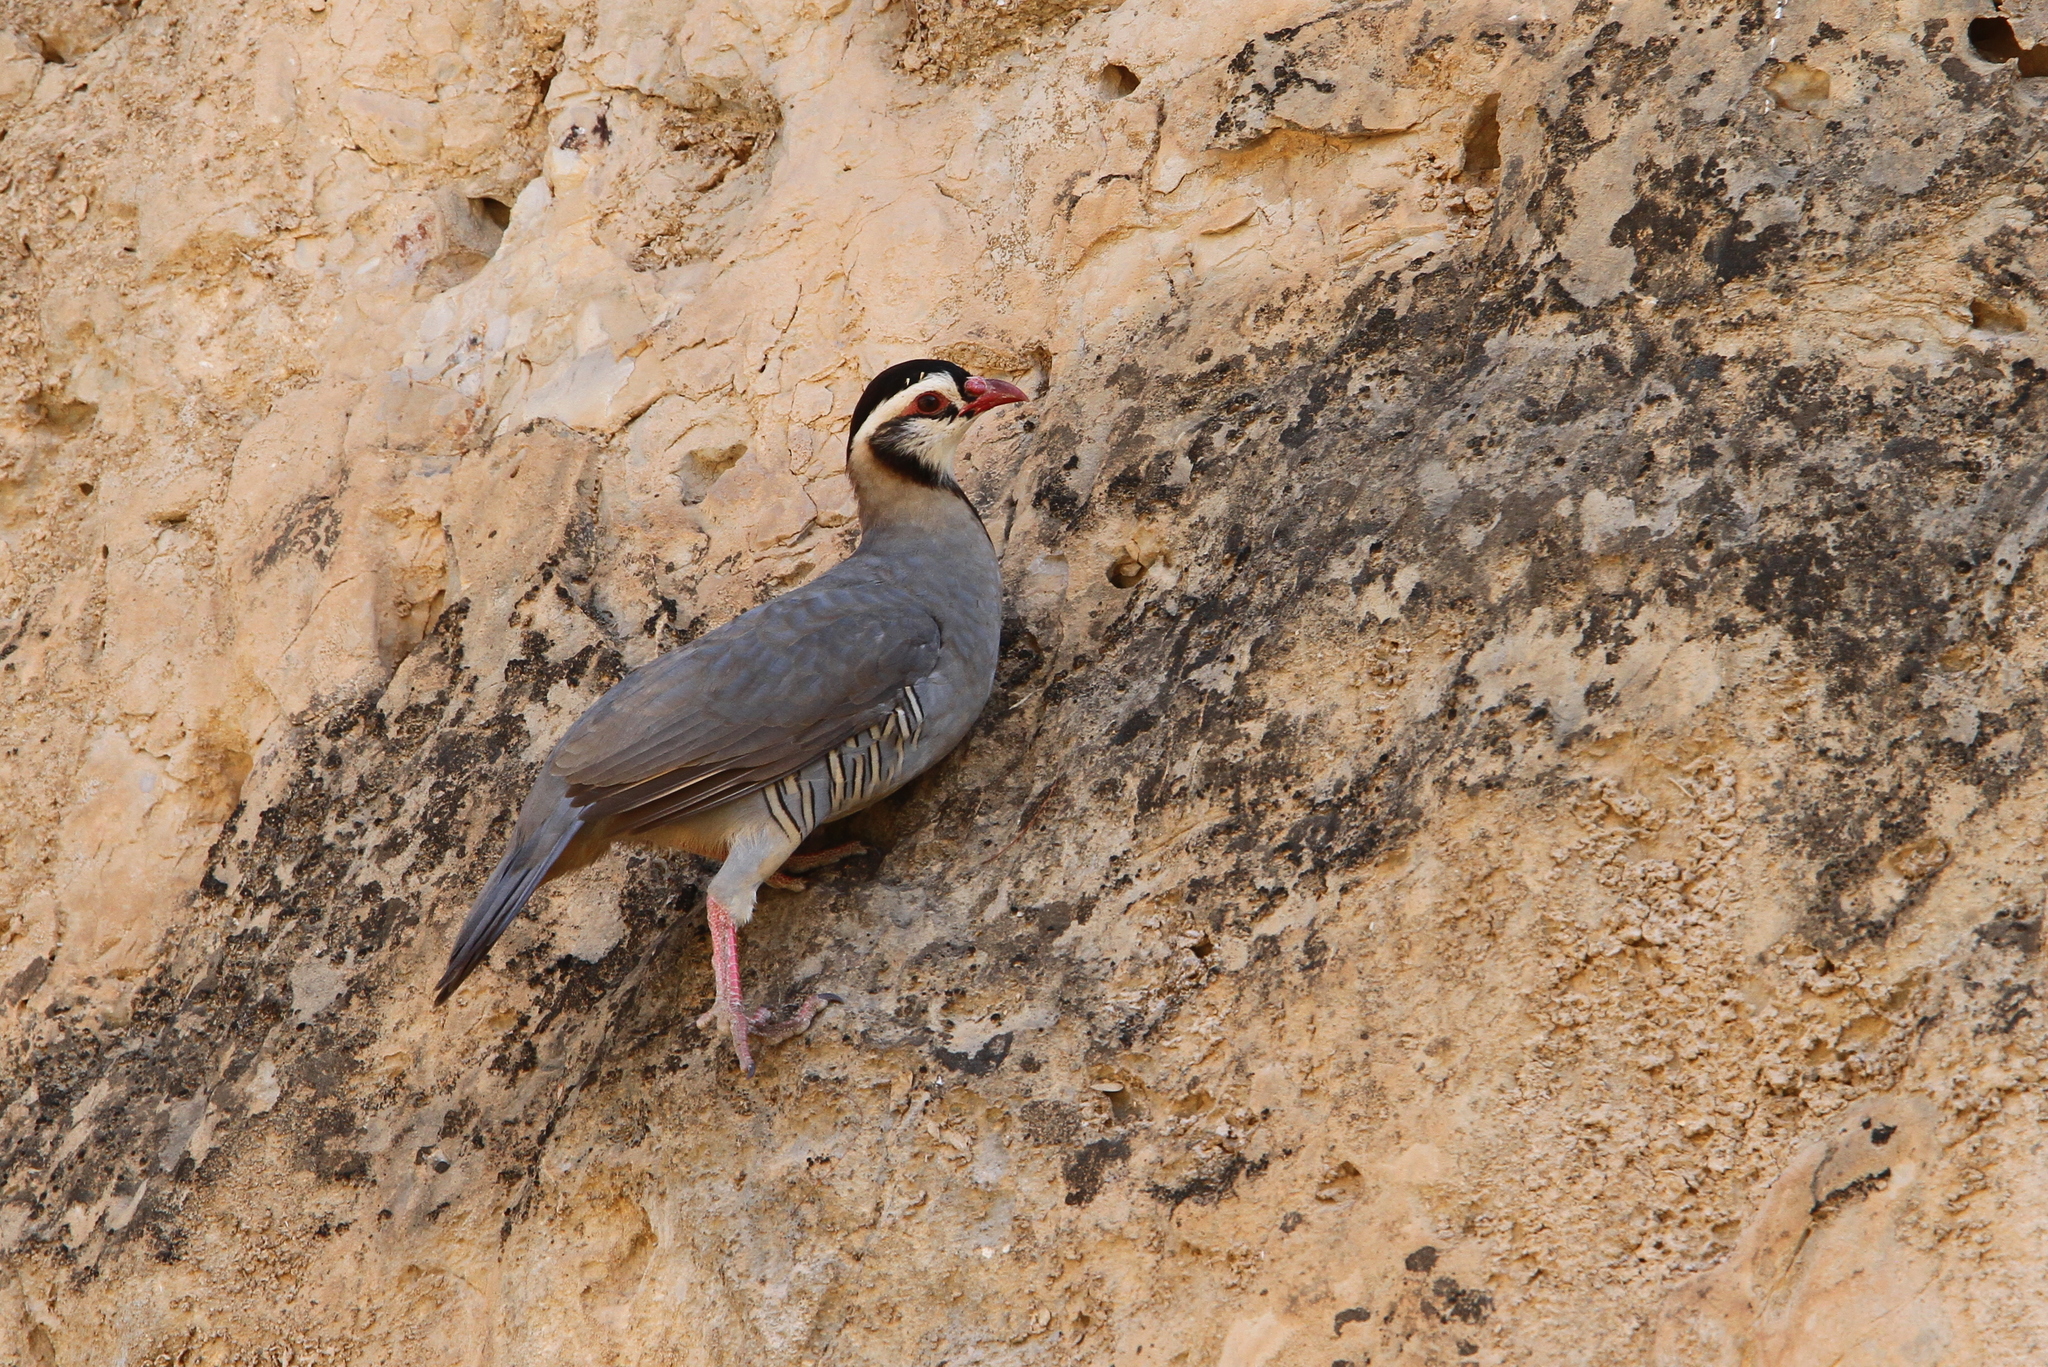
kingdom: Animalia
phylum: Chordata
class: Aves
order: Galliformes
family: Phasianidae
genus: Alectoris
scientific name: Alectoris melanocephala
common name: Arabian partridge
